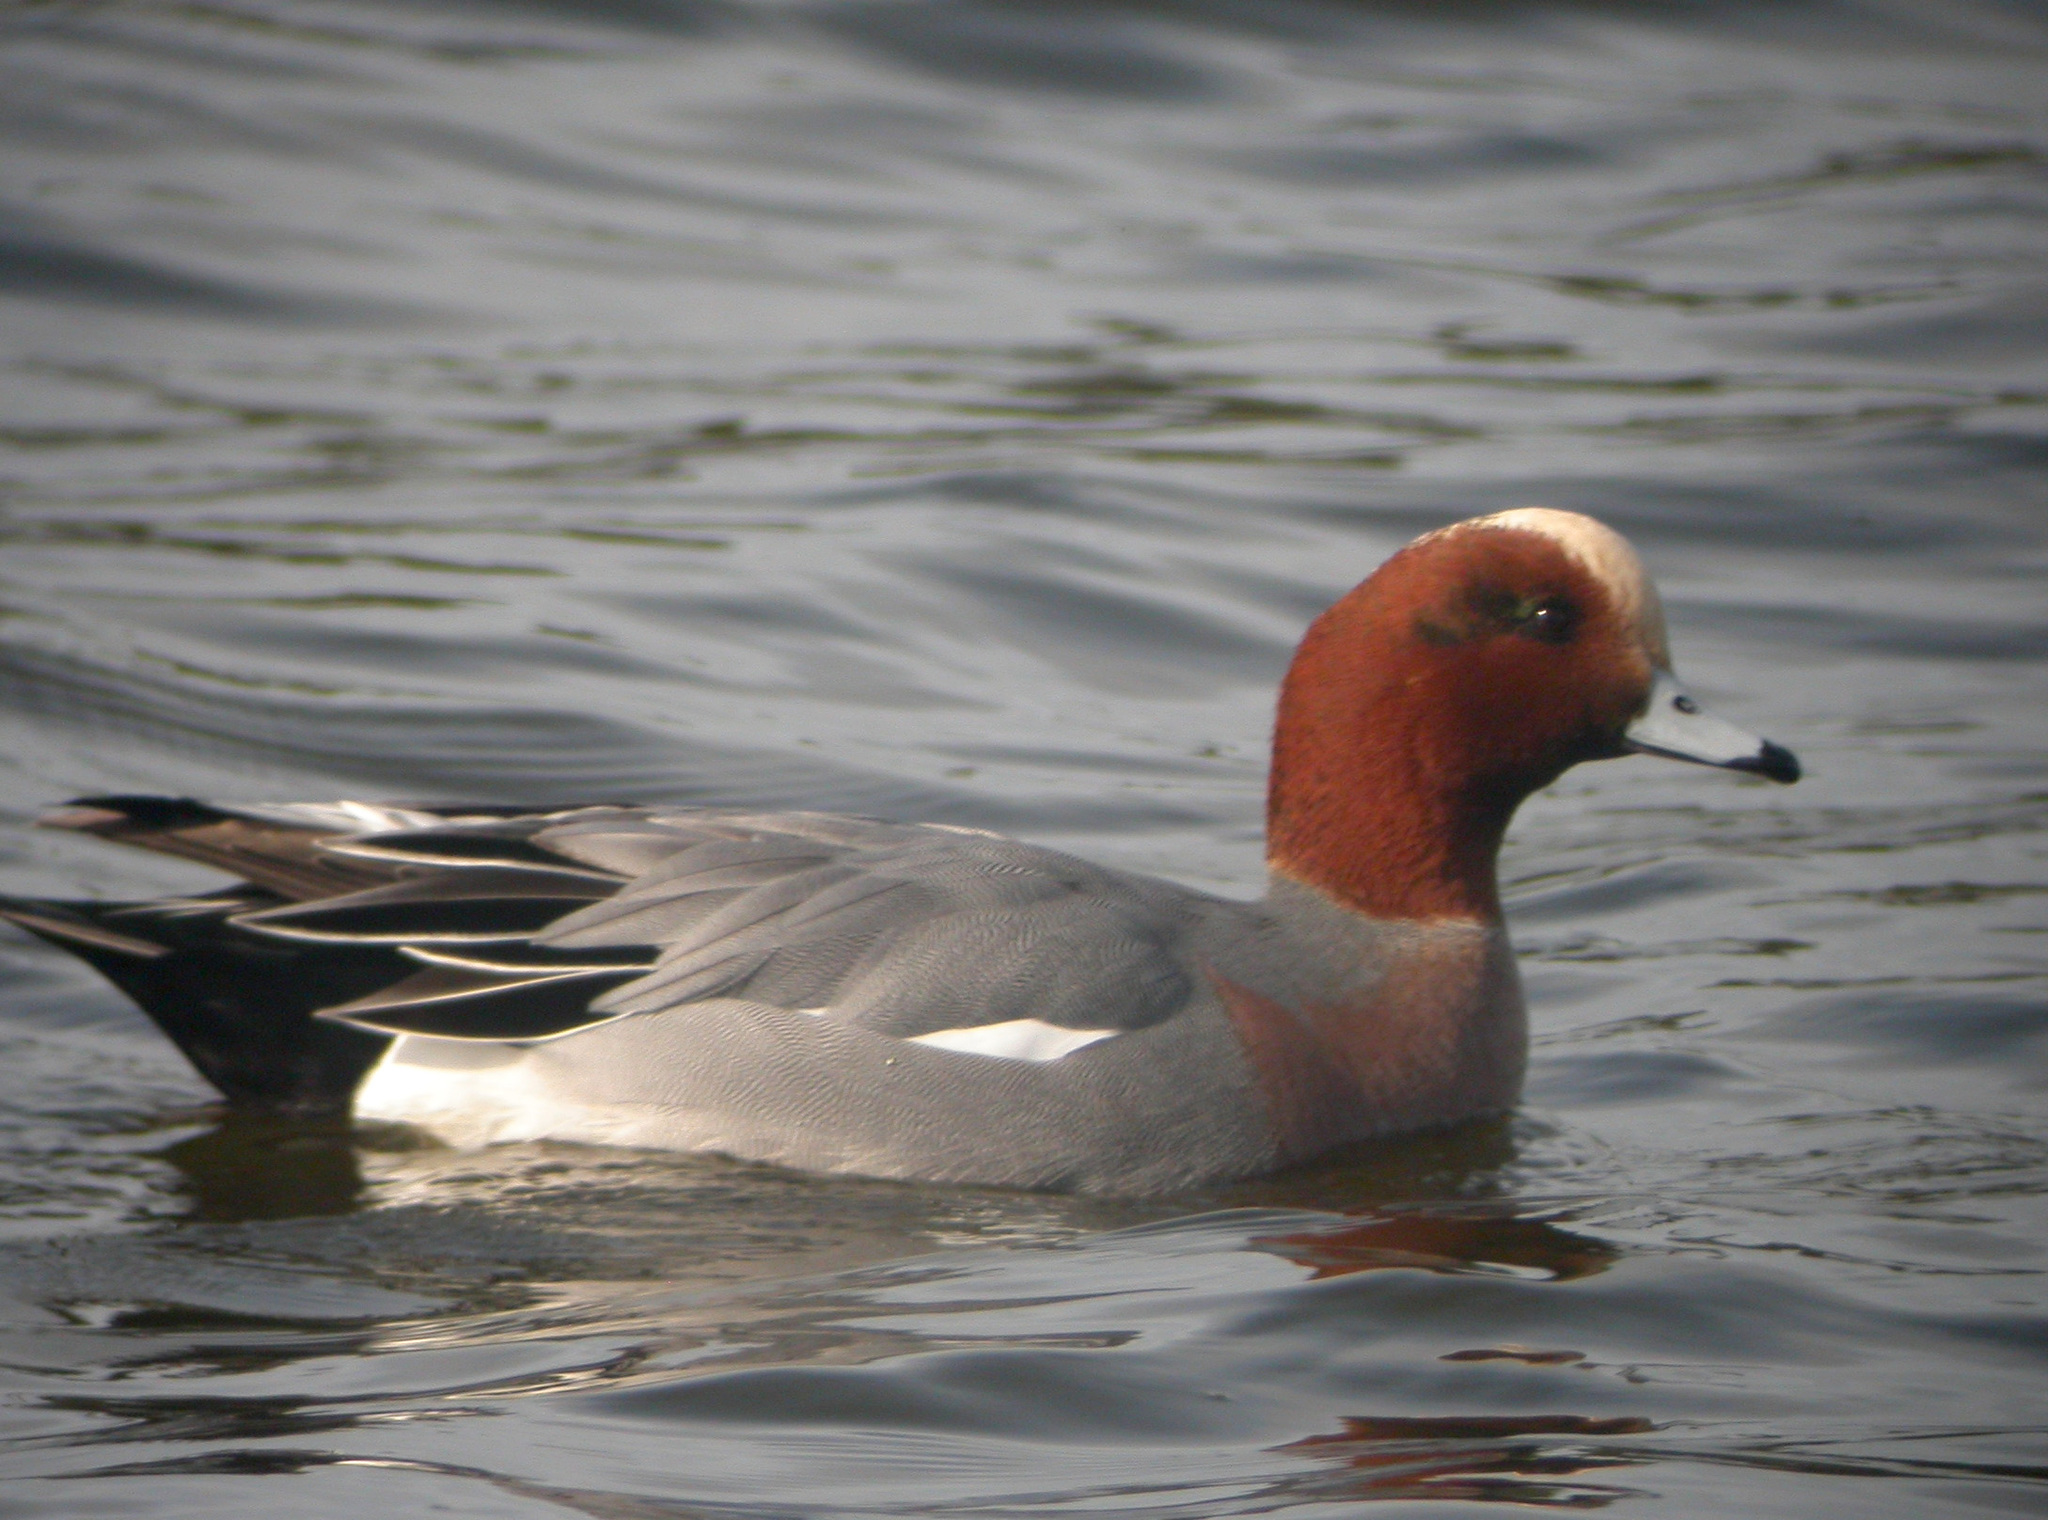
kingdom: Animalia
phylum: Chordata
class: Aves
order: Anseriformes
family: Anatidae
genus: Mareca
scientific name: Mareca penelope
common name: Eurasian wigeon
